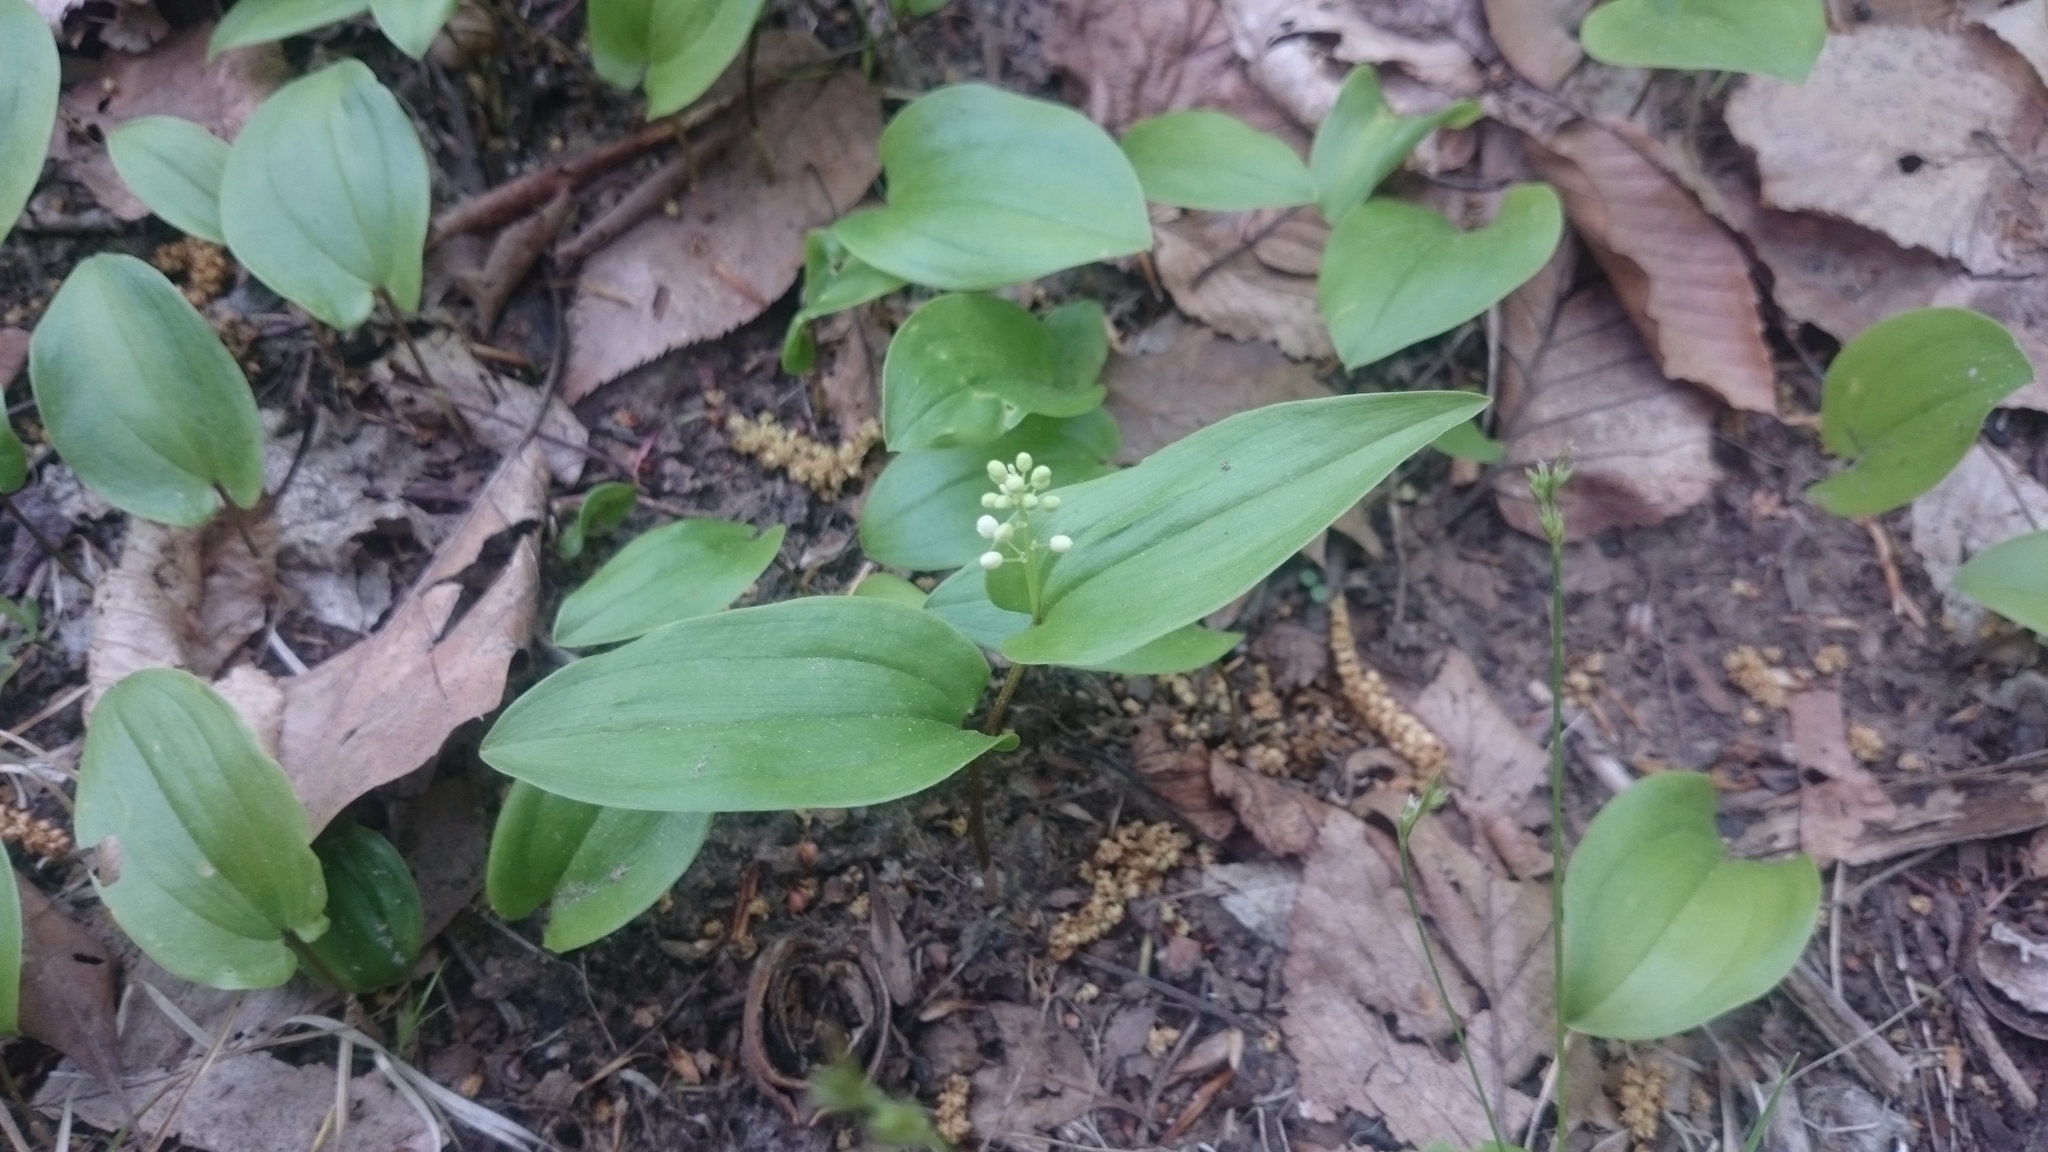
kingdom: Plantae
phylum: Tracheophyta
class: Liliopsida
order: Asparagales
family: Asparagaceae
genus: Maianthemum
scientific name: Maianthemum canadense
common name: False lily-of-the-valley
